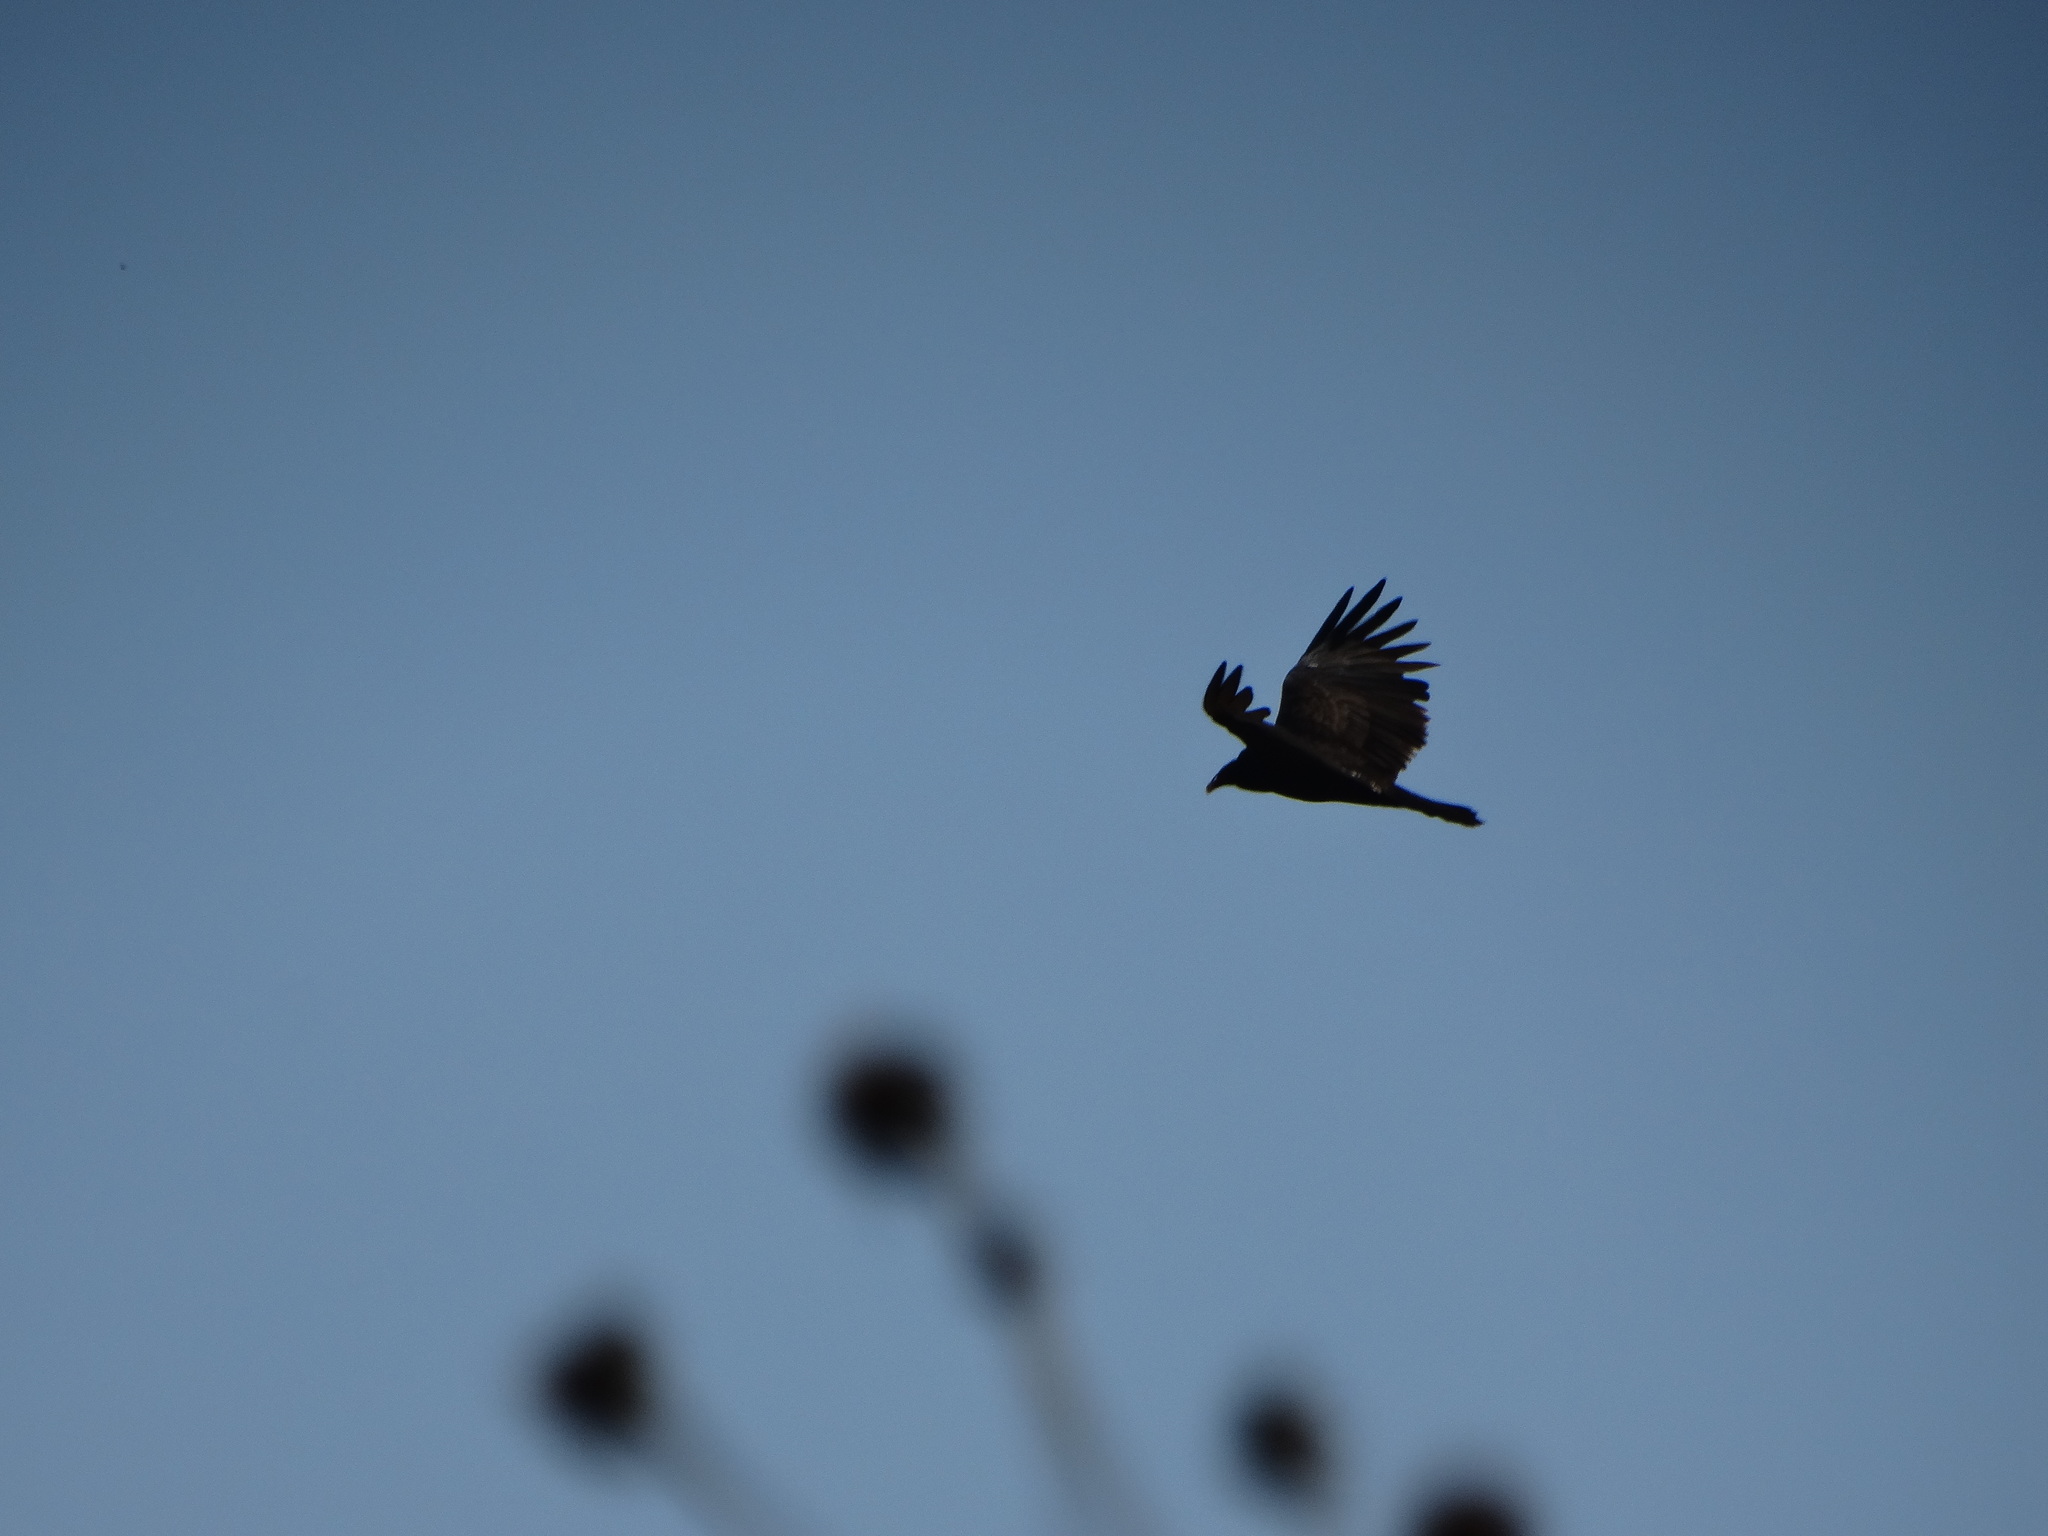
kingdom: Animalia
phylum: Chordata
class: Aves
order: Accipitriformes
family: Cathartidae
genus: Cathartes
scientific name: Cathartes aura
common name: Turkey vulture
